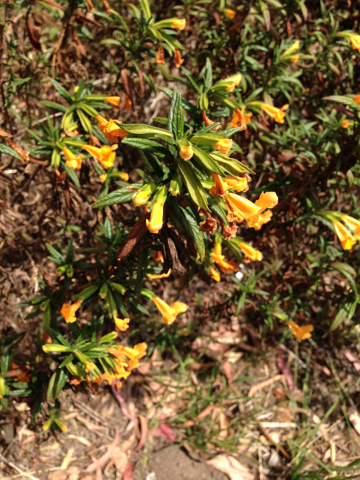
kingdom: Plantae
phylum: Tracheophyta
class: Magnoliopsida
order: Lamiales
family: Phrymaceae
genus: Diplacus
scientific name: Diplacus aurantiacus
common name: Bush monkey-flower
